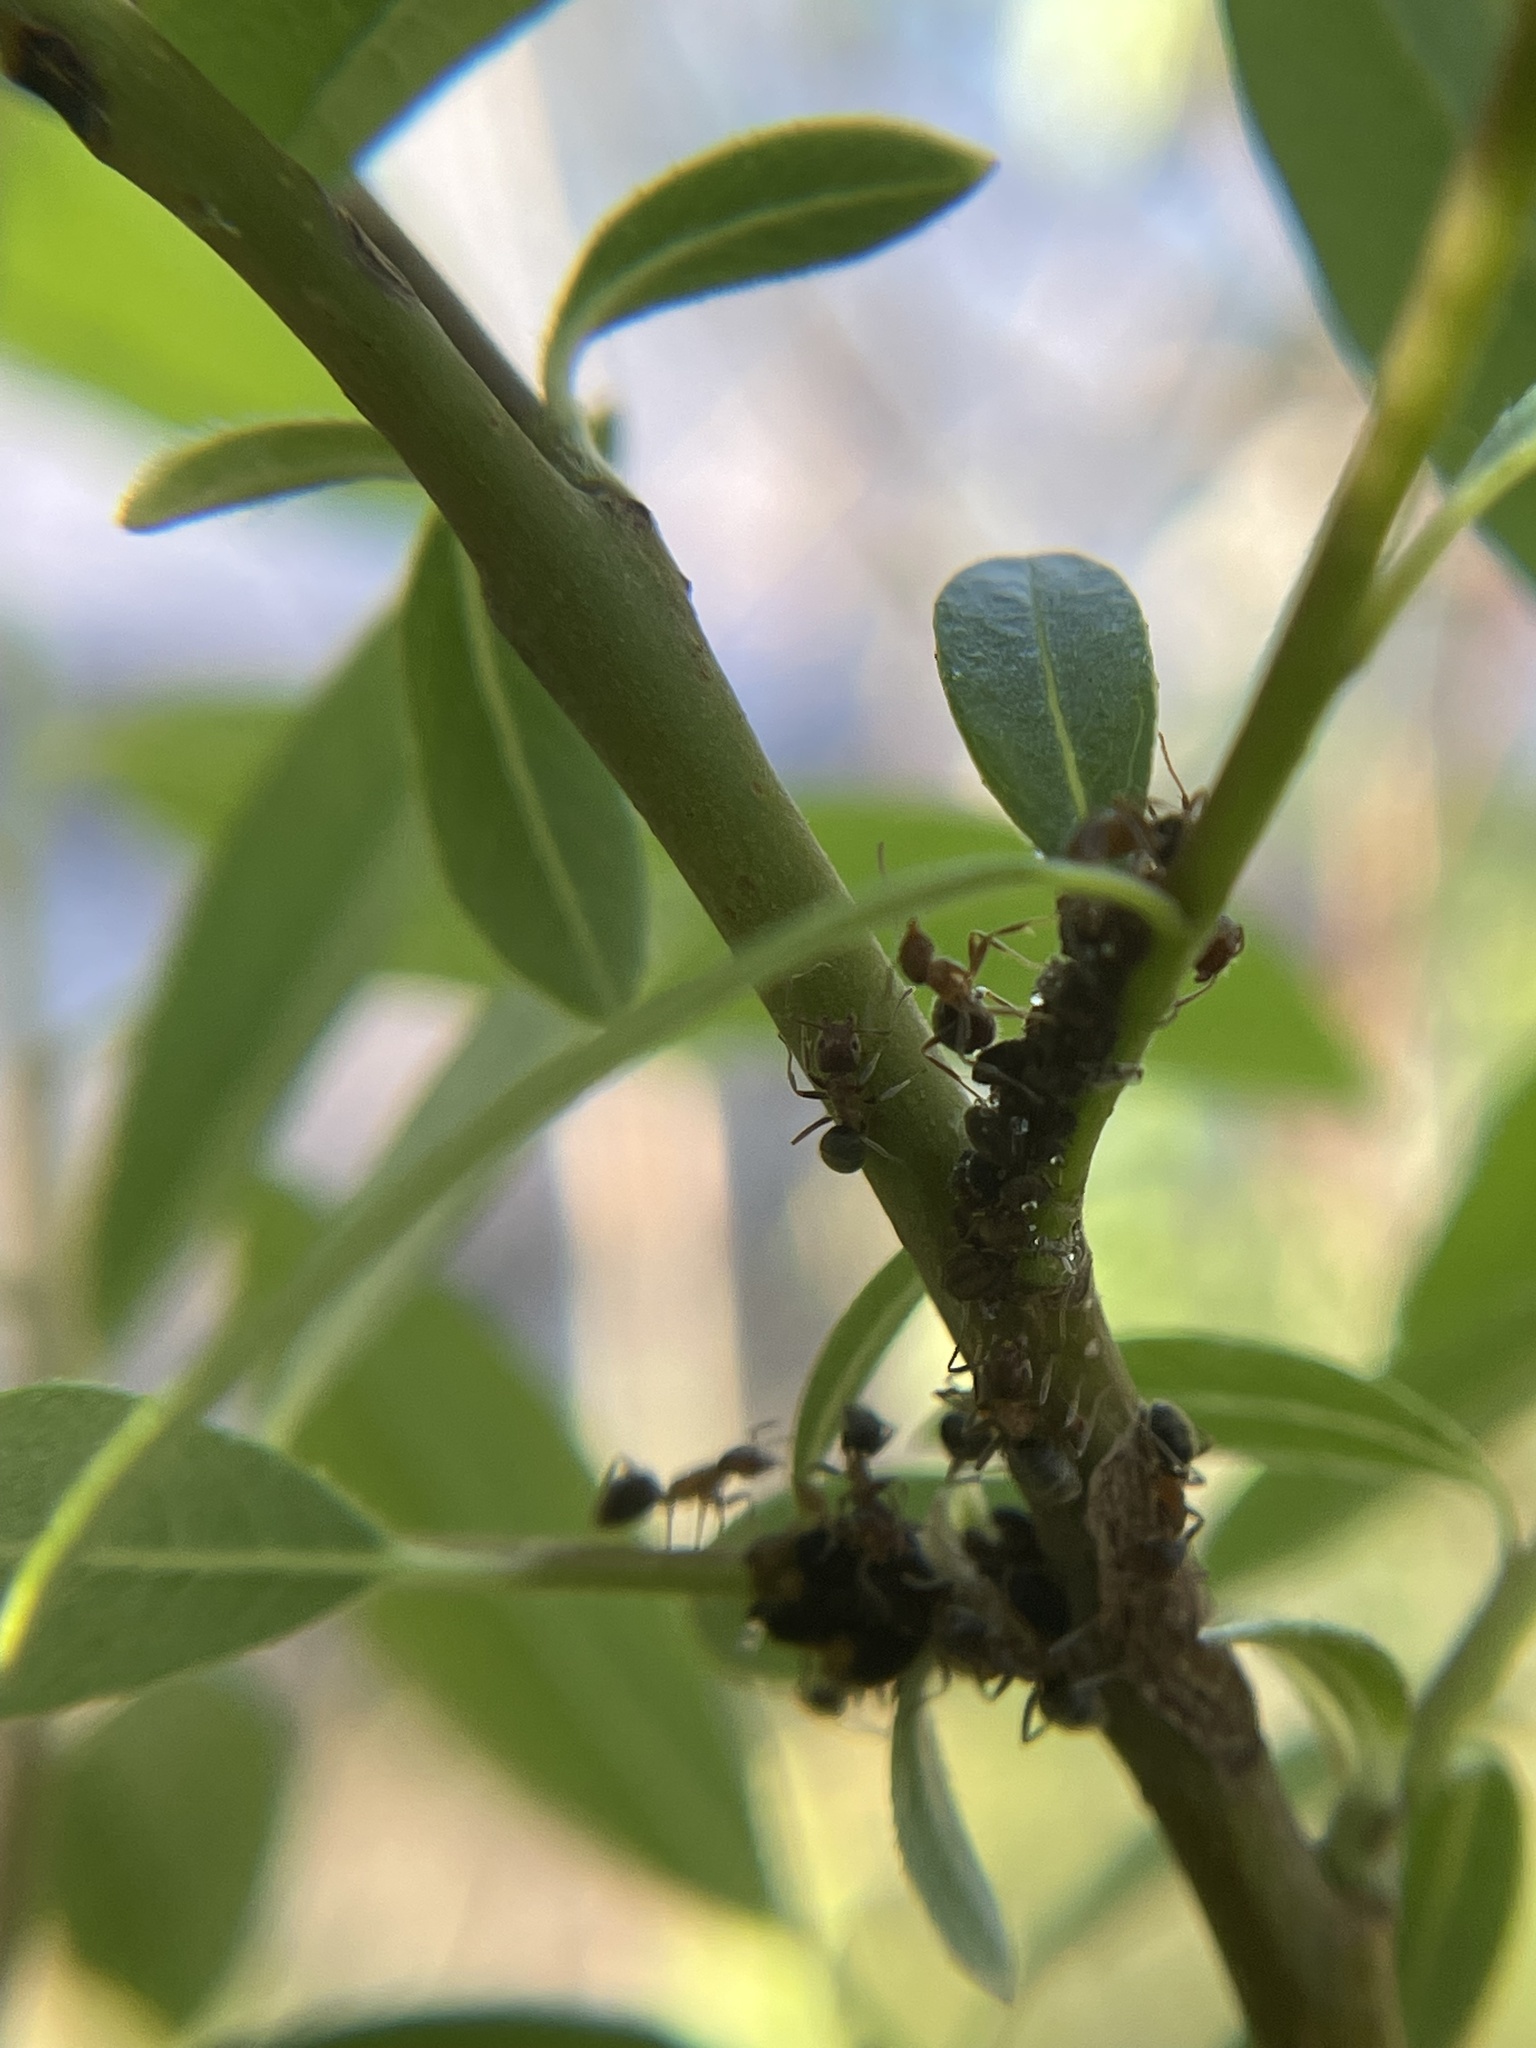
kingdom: Animalia
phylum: Arthropoda
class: Insecta
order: Hymenoptera
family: Formicidae
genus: Liometopum
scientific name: Liometopum occidentale
